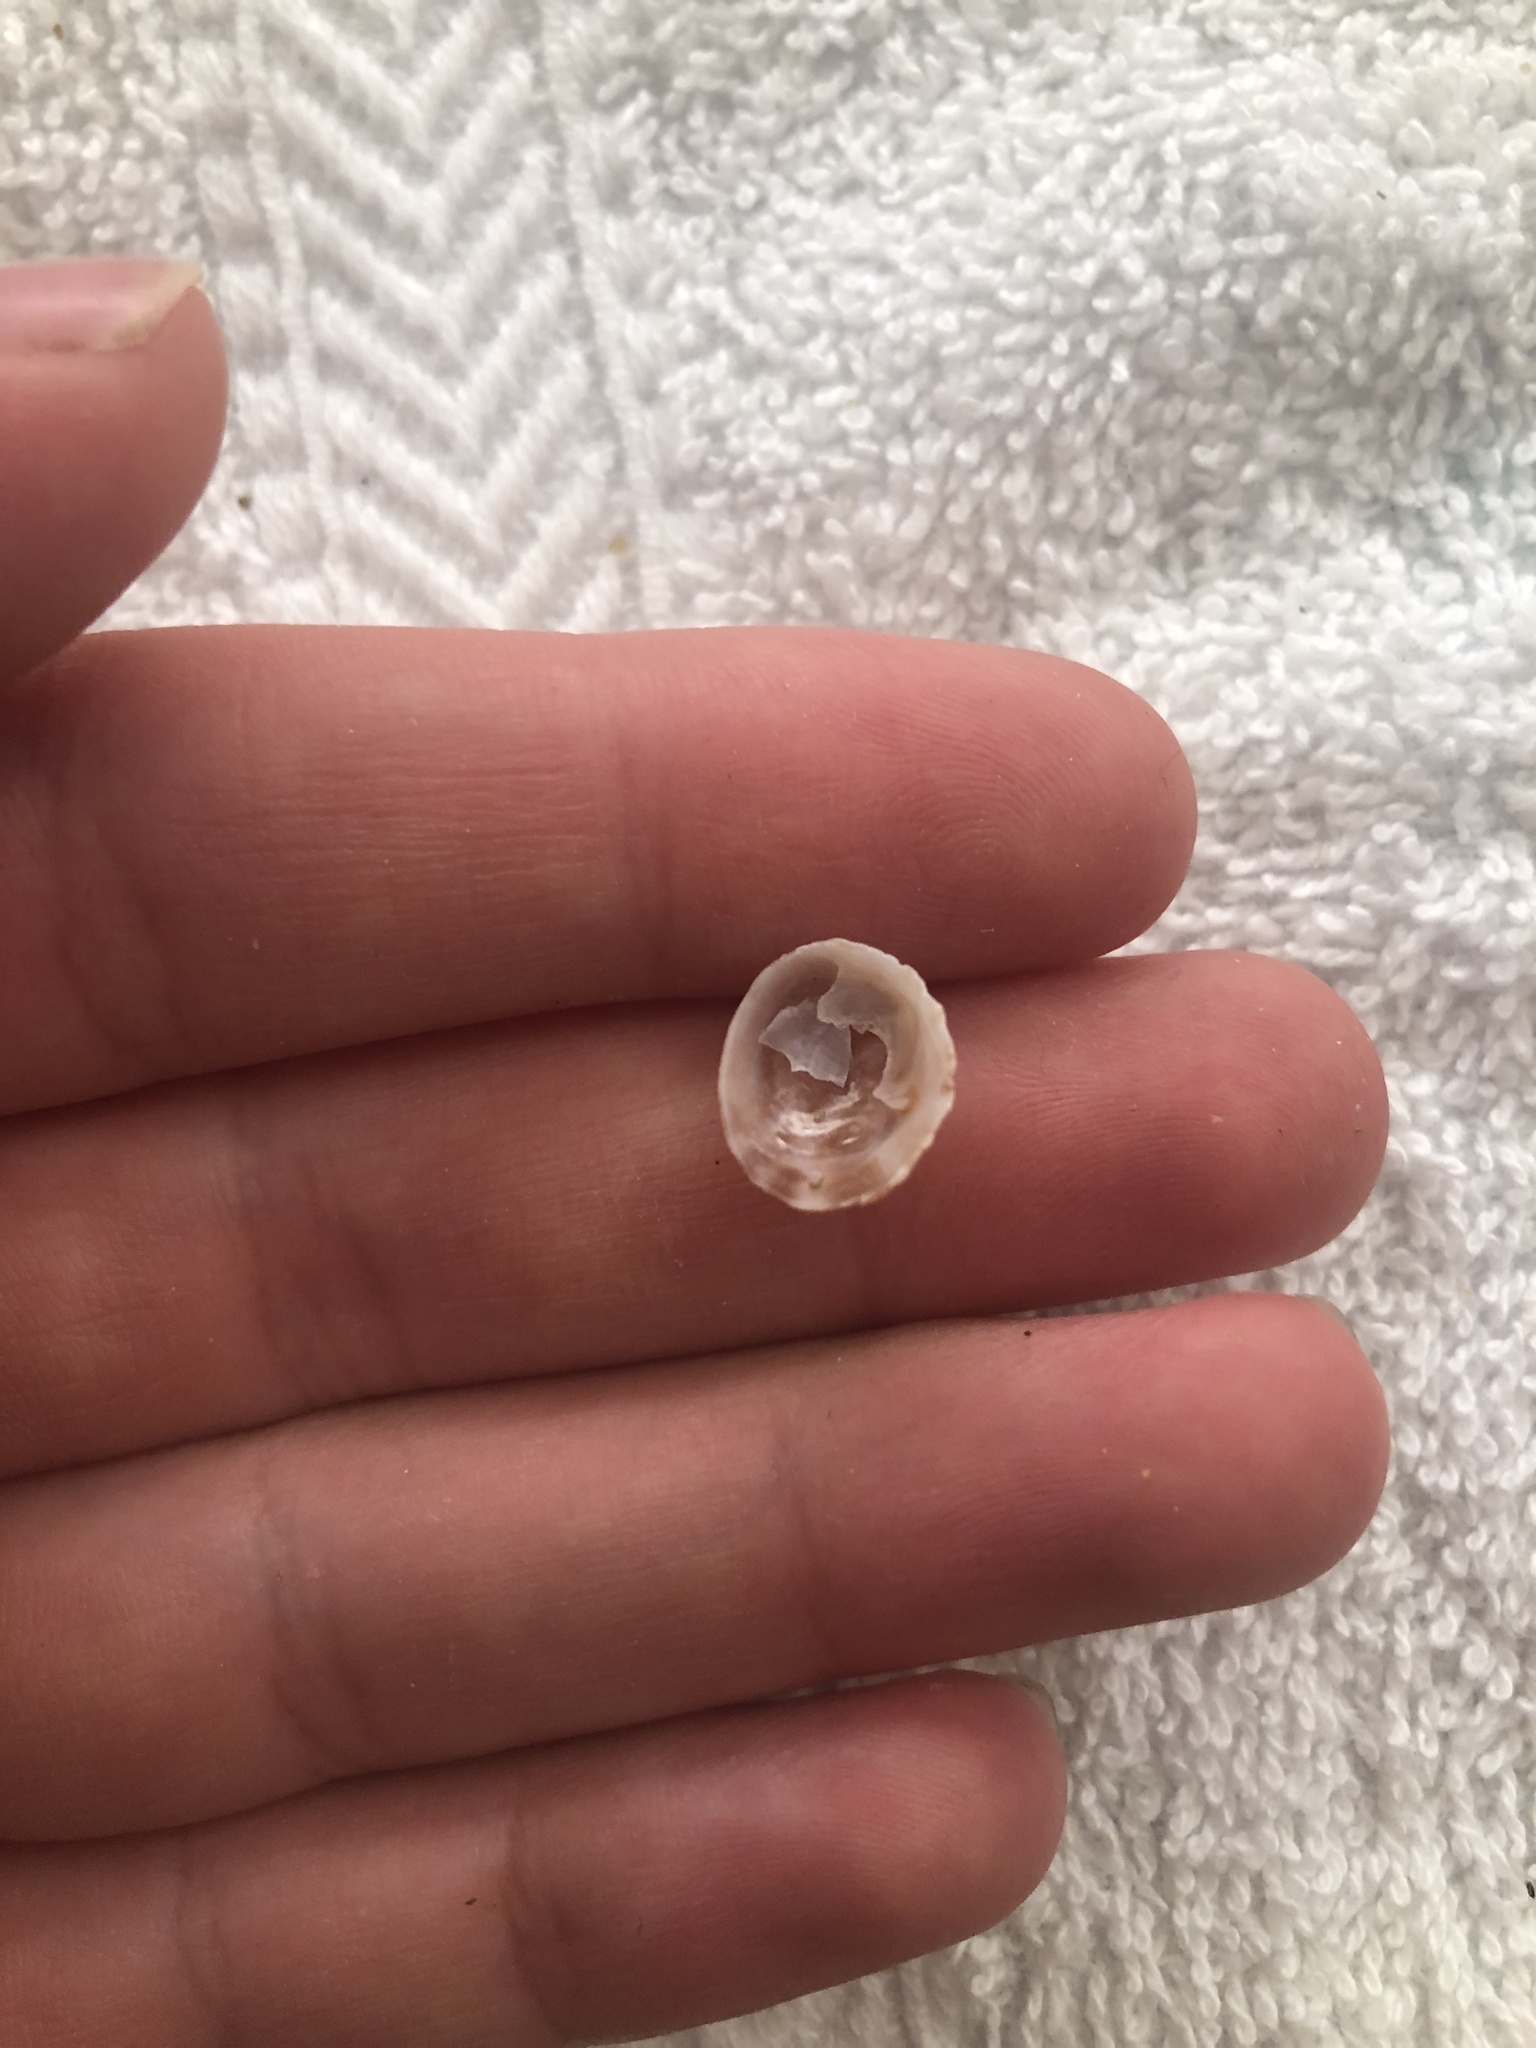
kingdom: Animalia
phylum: Mollusca
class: Gastropoda
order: Littorinimorpha
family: Calyptraeidae
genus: Crepipatella
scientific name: Crepipatella lingulata
